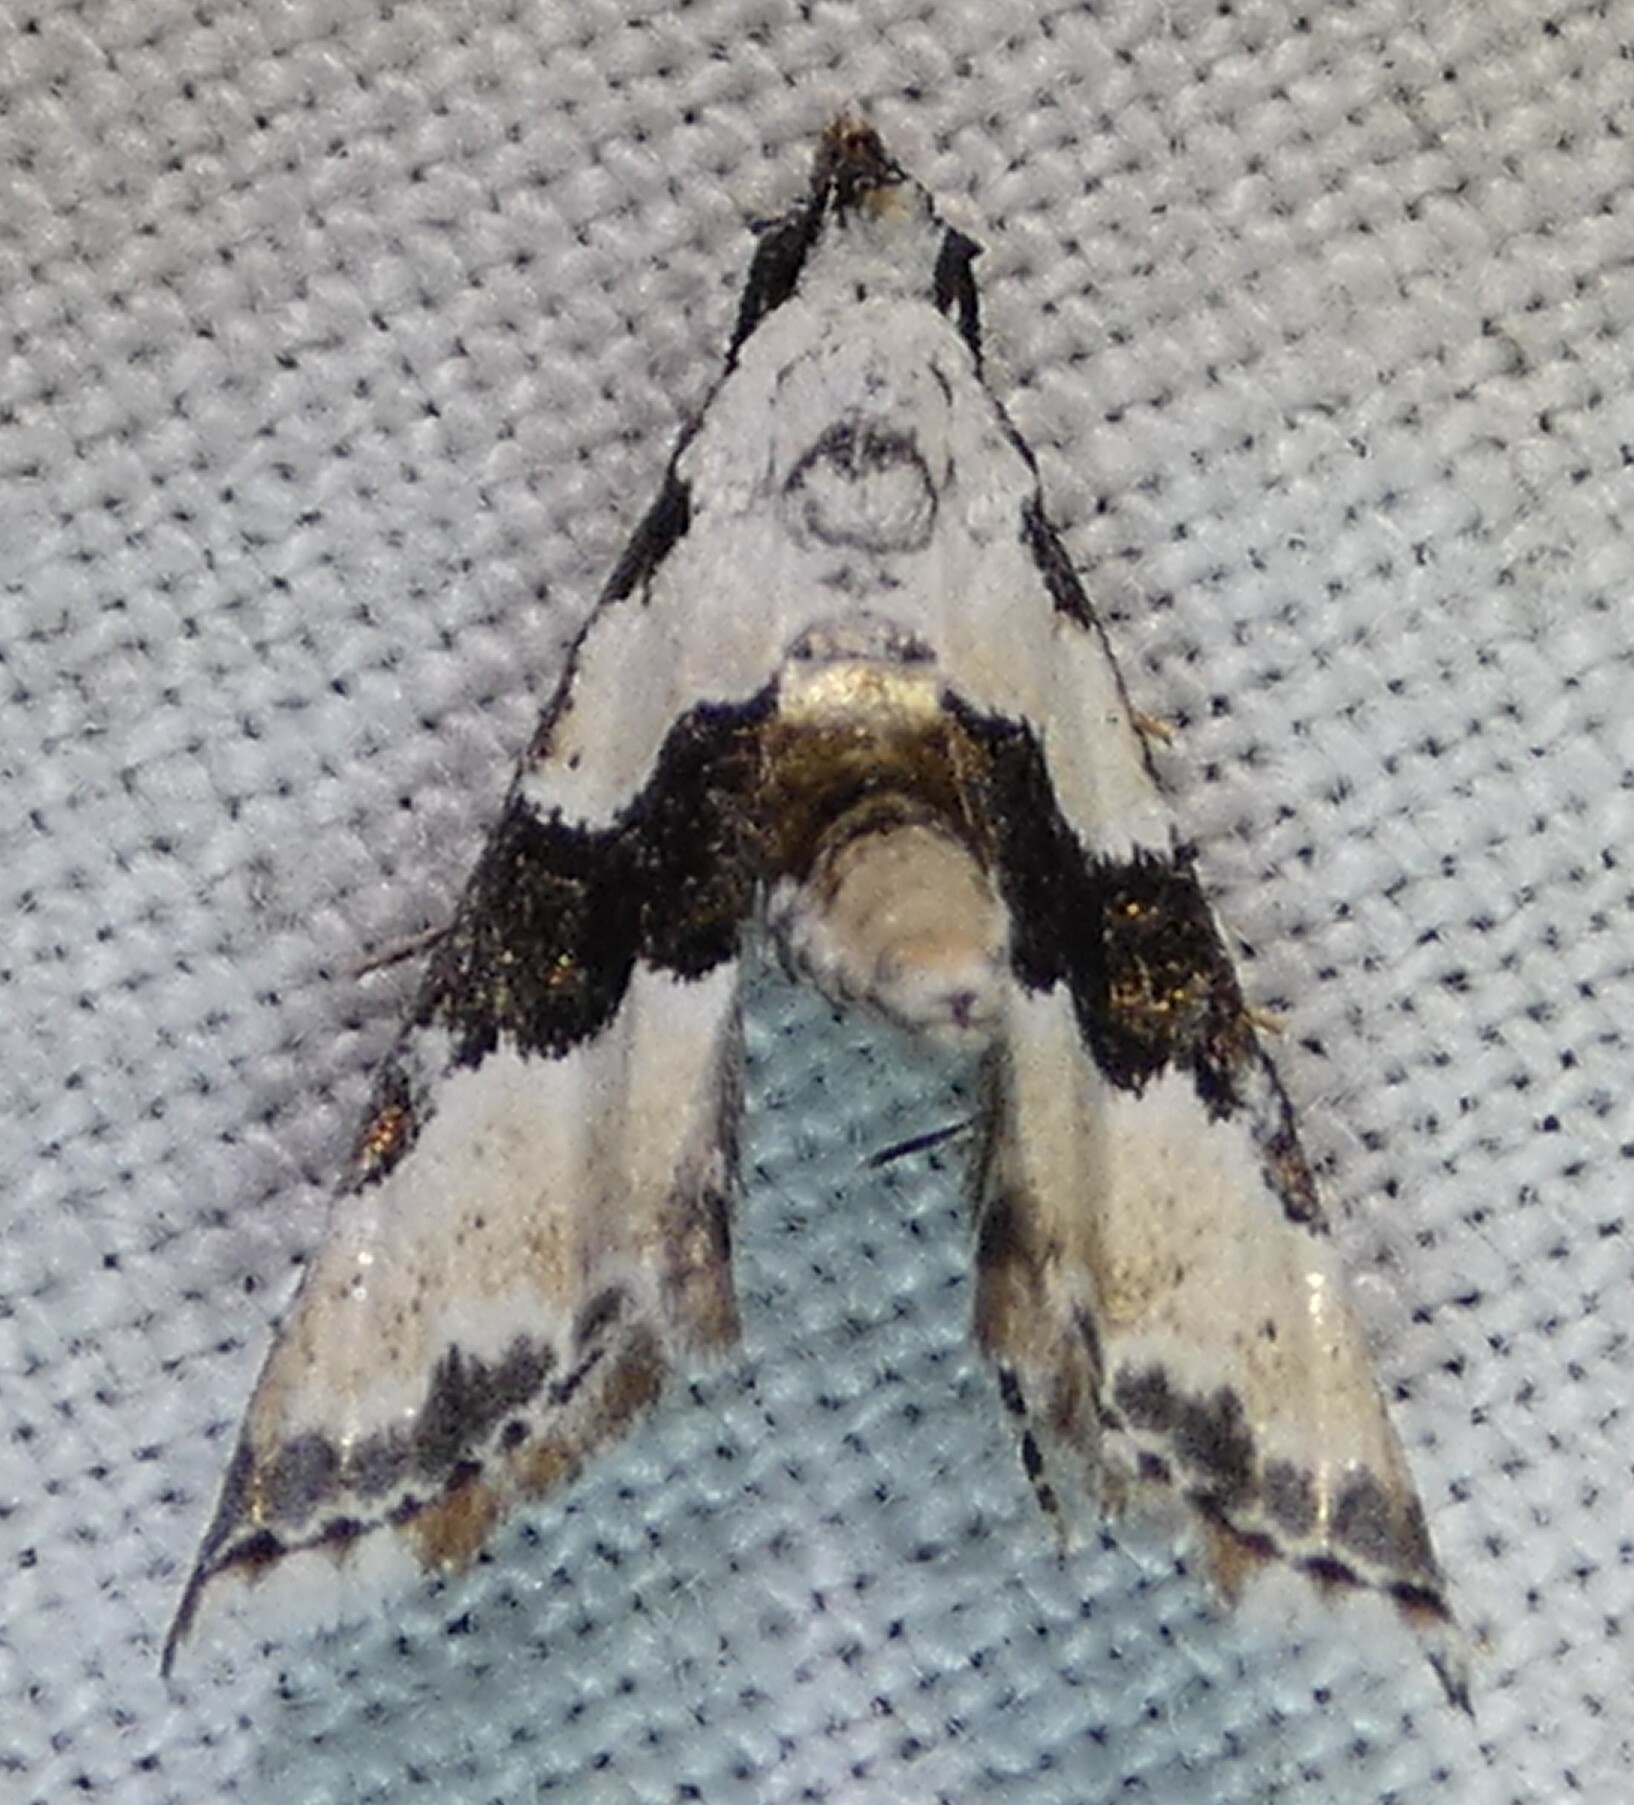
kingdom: Animalia
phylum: Arthropoda
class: Insecta
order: Lepidoptera
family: Noctuidae
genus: Nigetia
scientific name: Nigetia formosalis
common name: Thin-winged owlet
